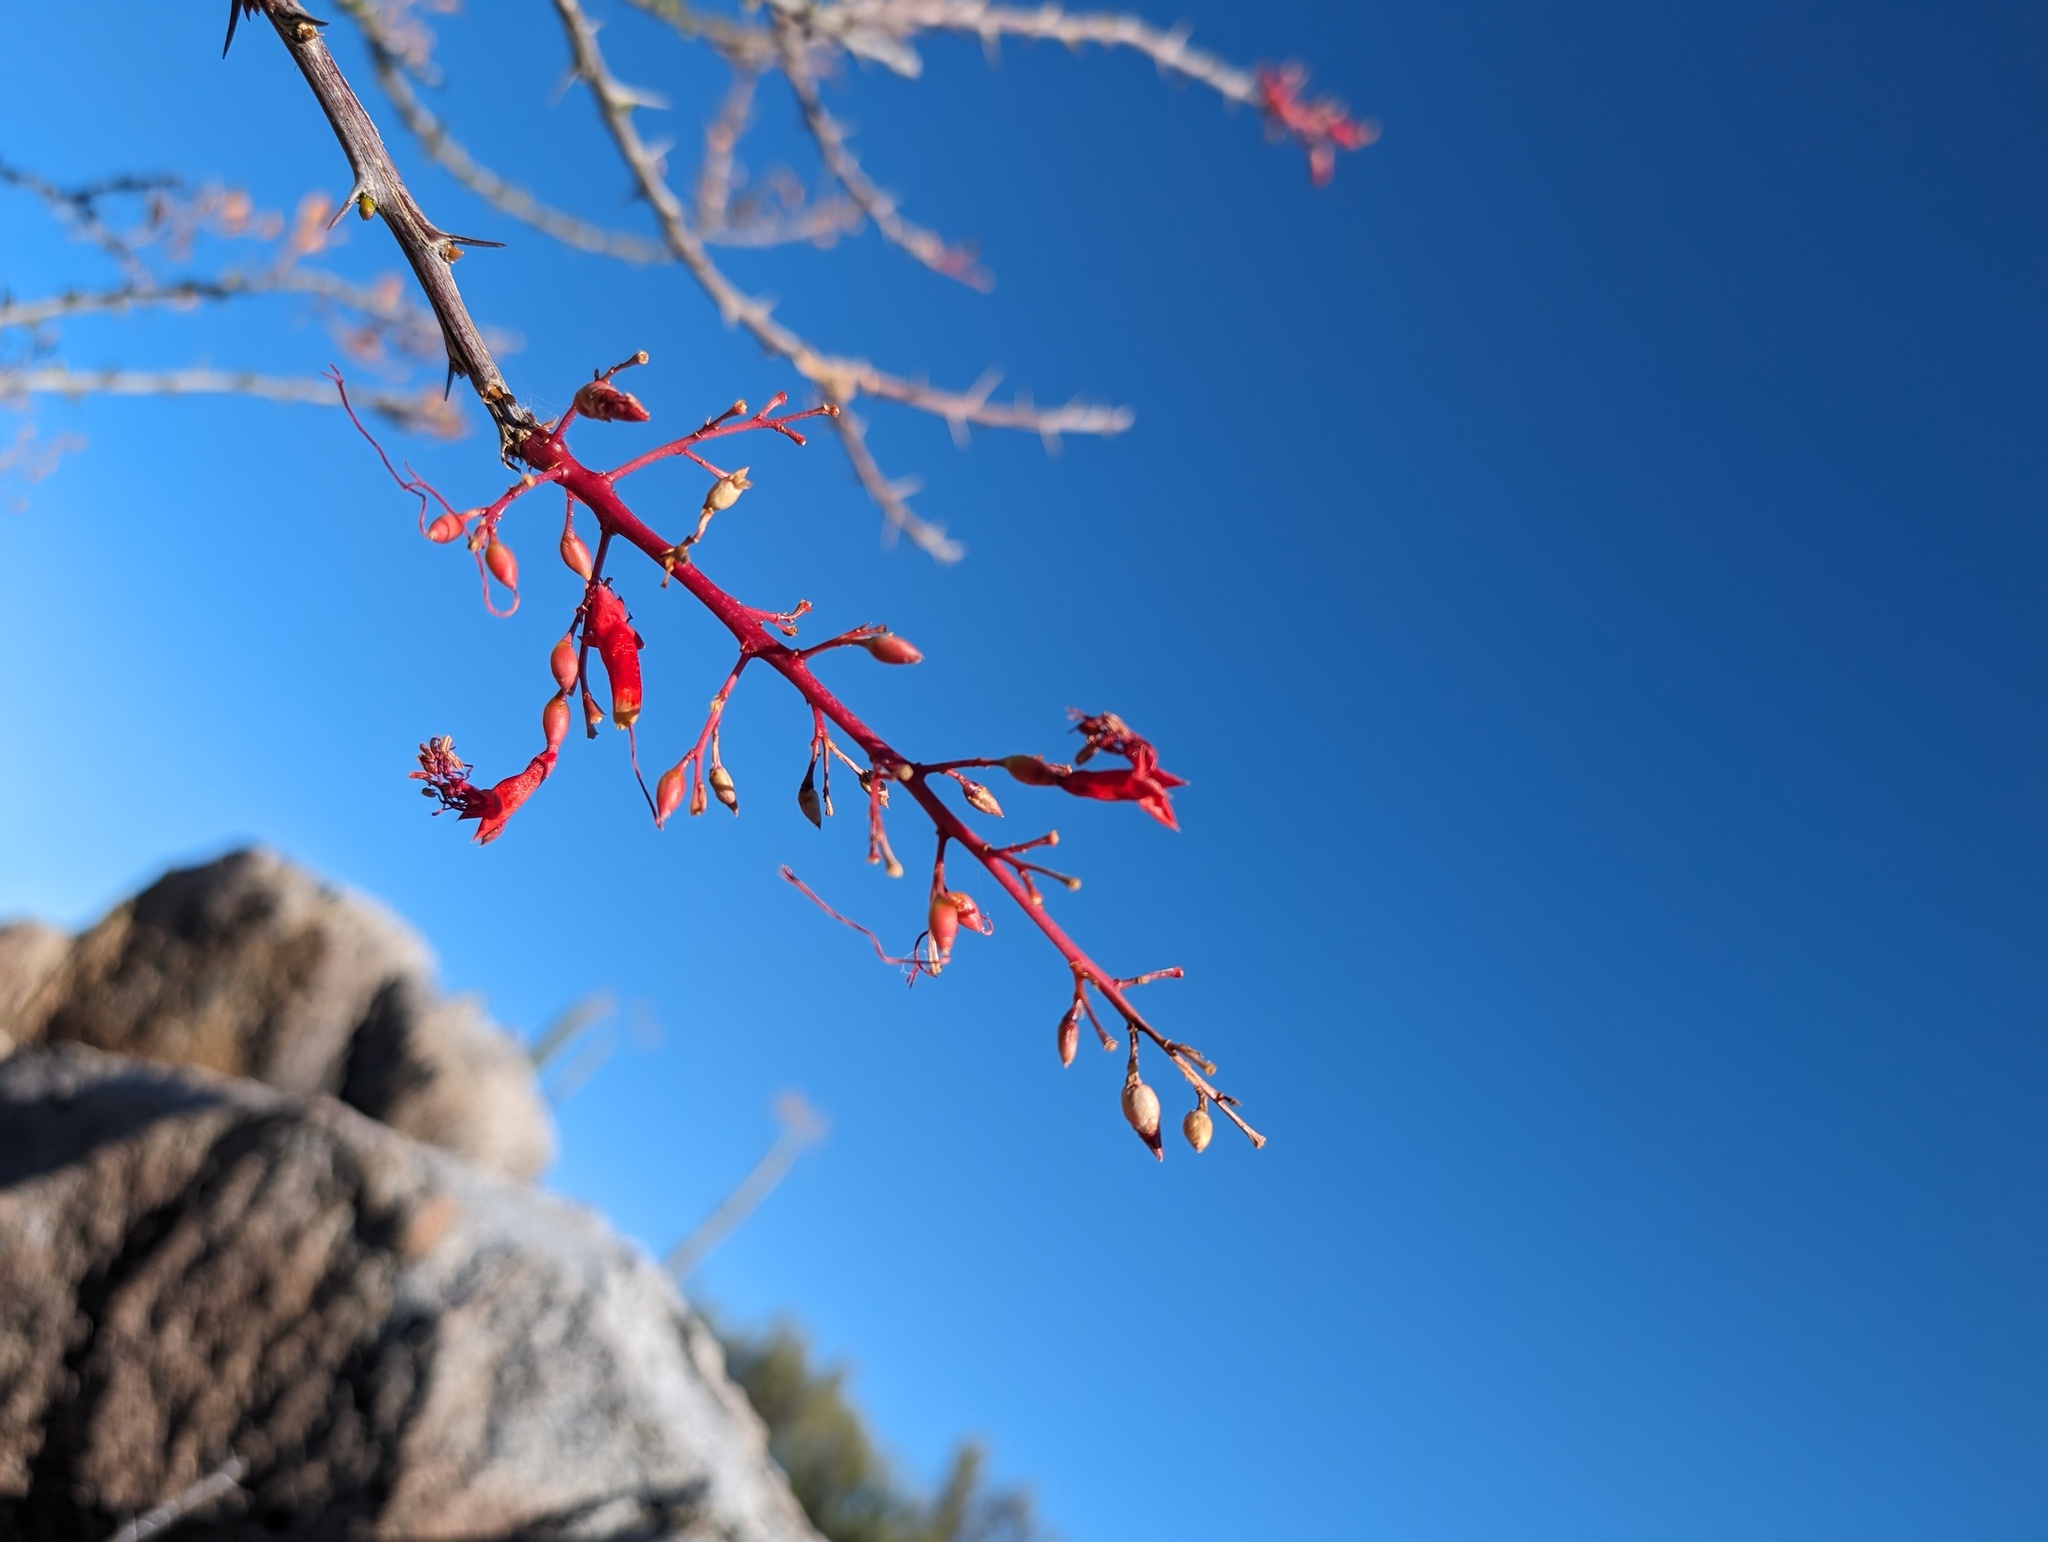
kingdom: Plantae
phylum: Tracheophyta
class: Magnoliopsida
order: Ericales
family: Fouquieriaceae
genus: Fouquieria
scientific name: Fouquieria diguetii
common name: Adam's tree
